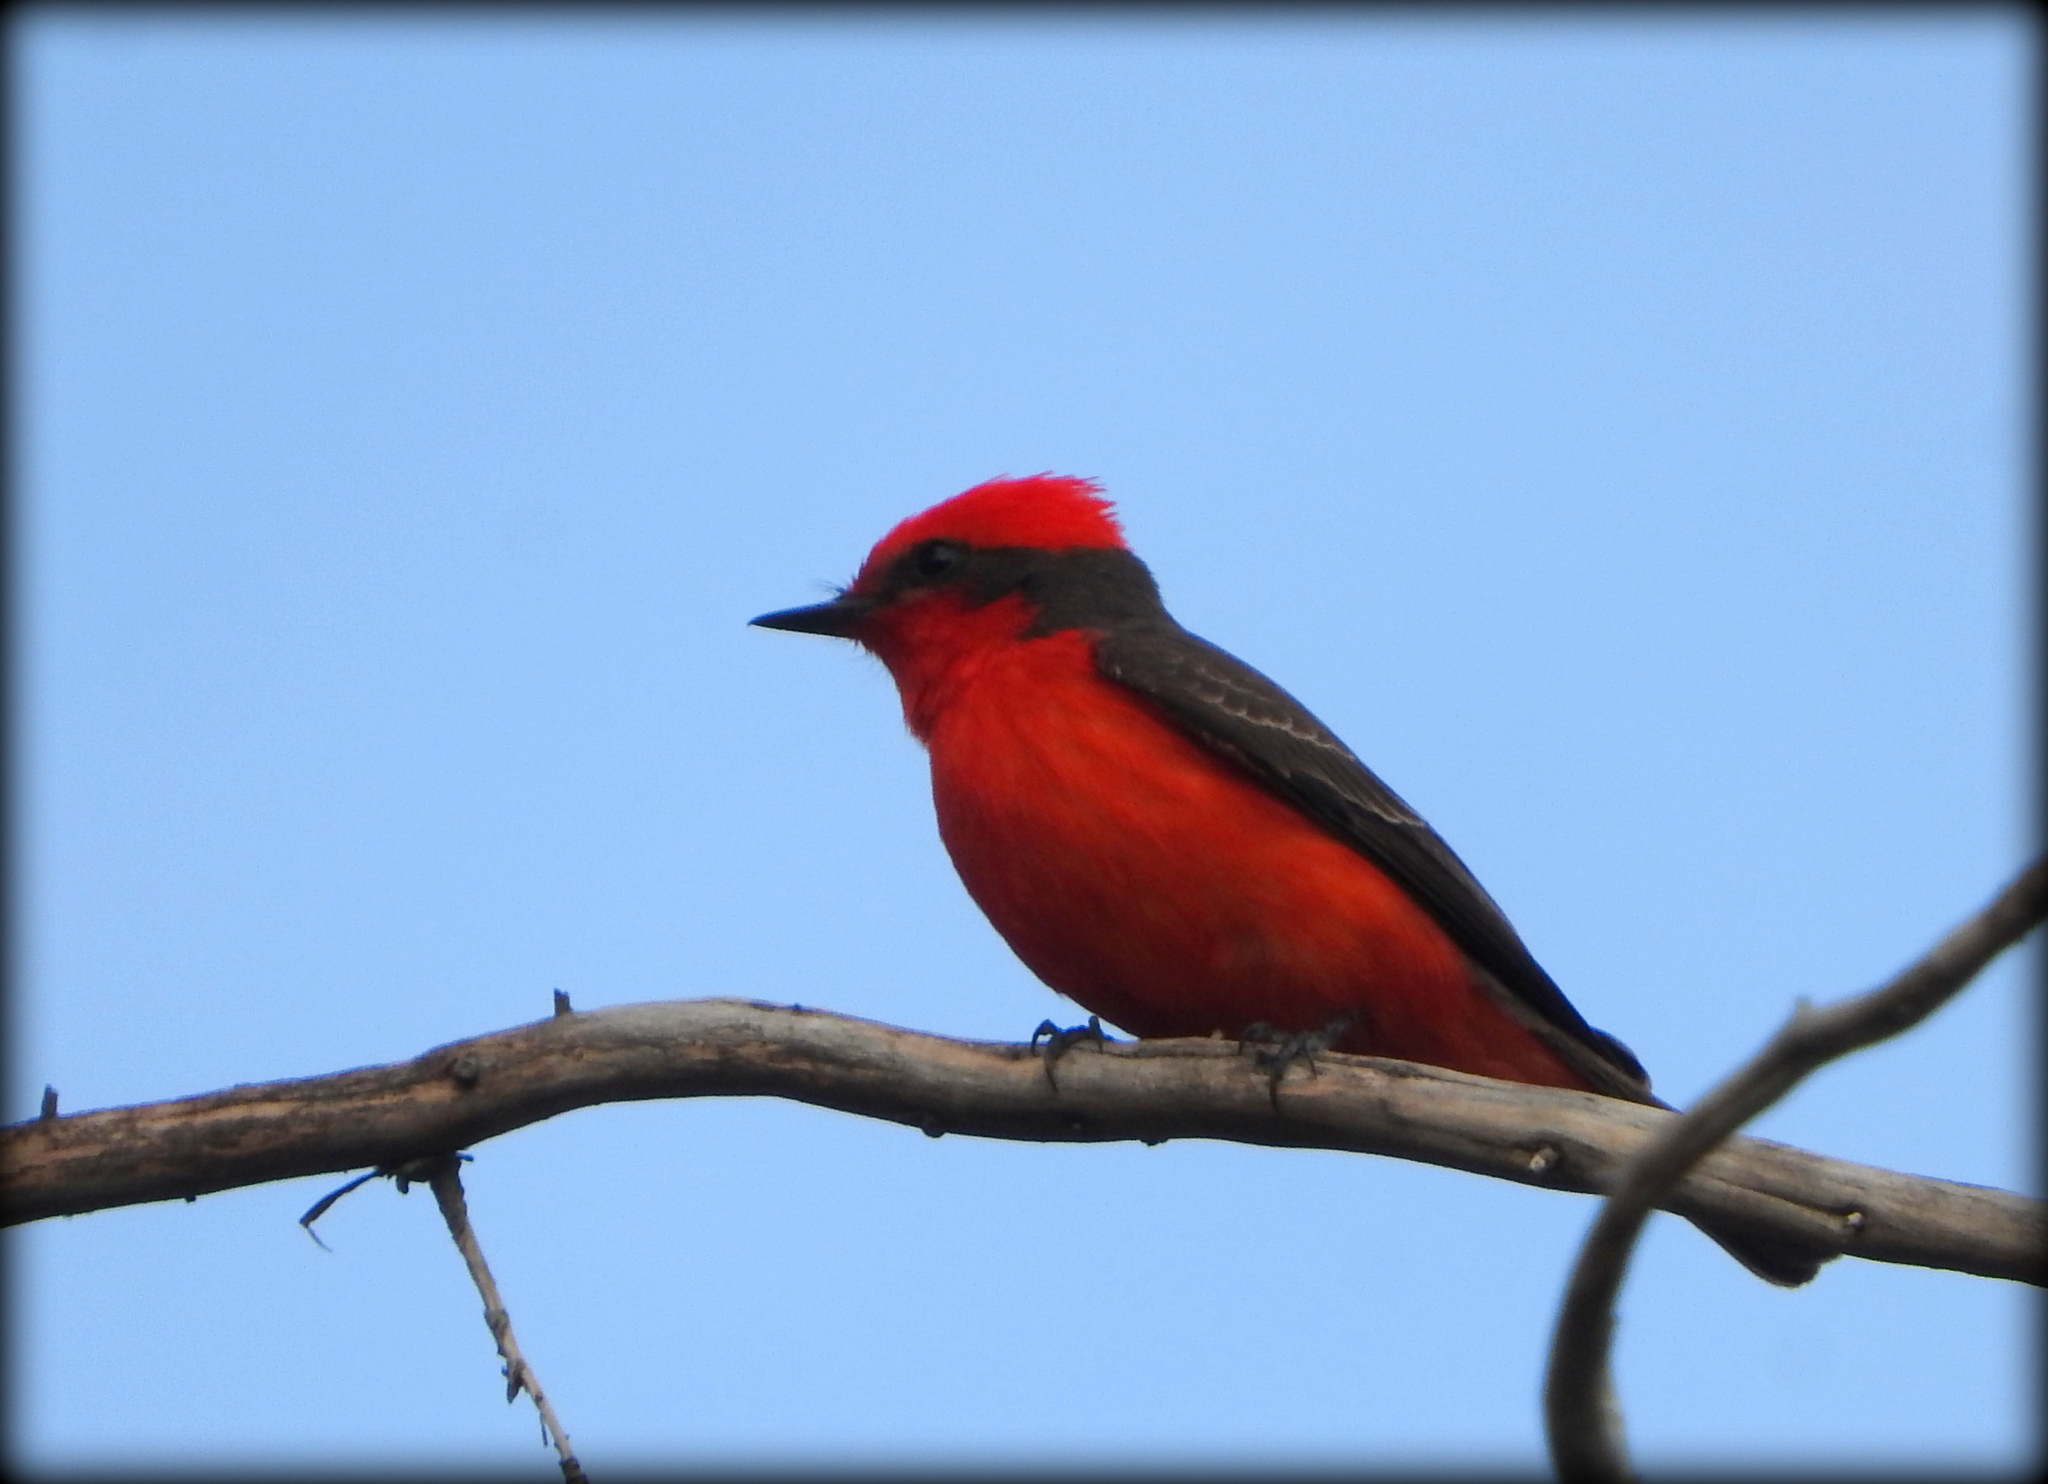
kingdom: Animalia
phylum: Chordata
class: Aves
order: Passeriformes
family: Tyrannidae
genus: Pyrocephalus
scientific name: Pyrocephalus rubinus
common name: Vermilion flycatcher
